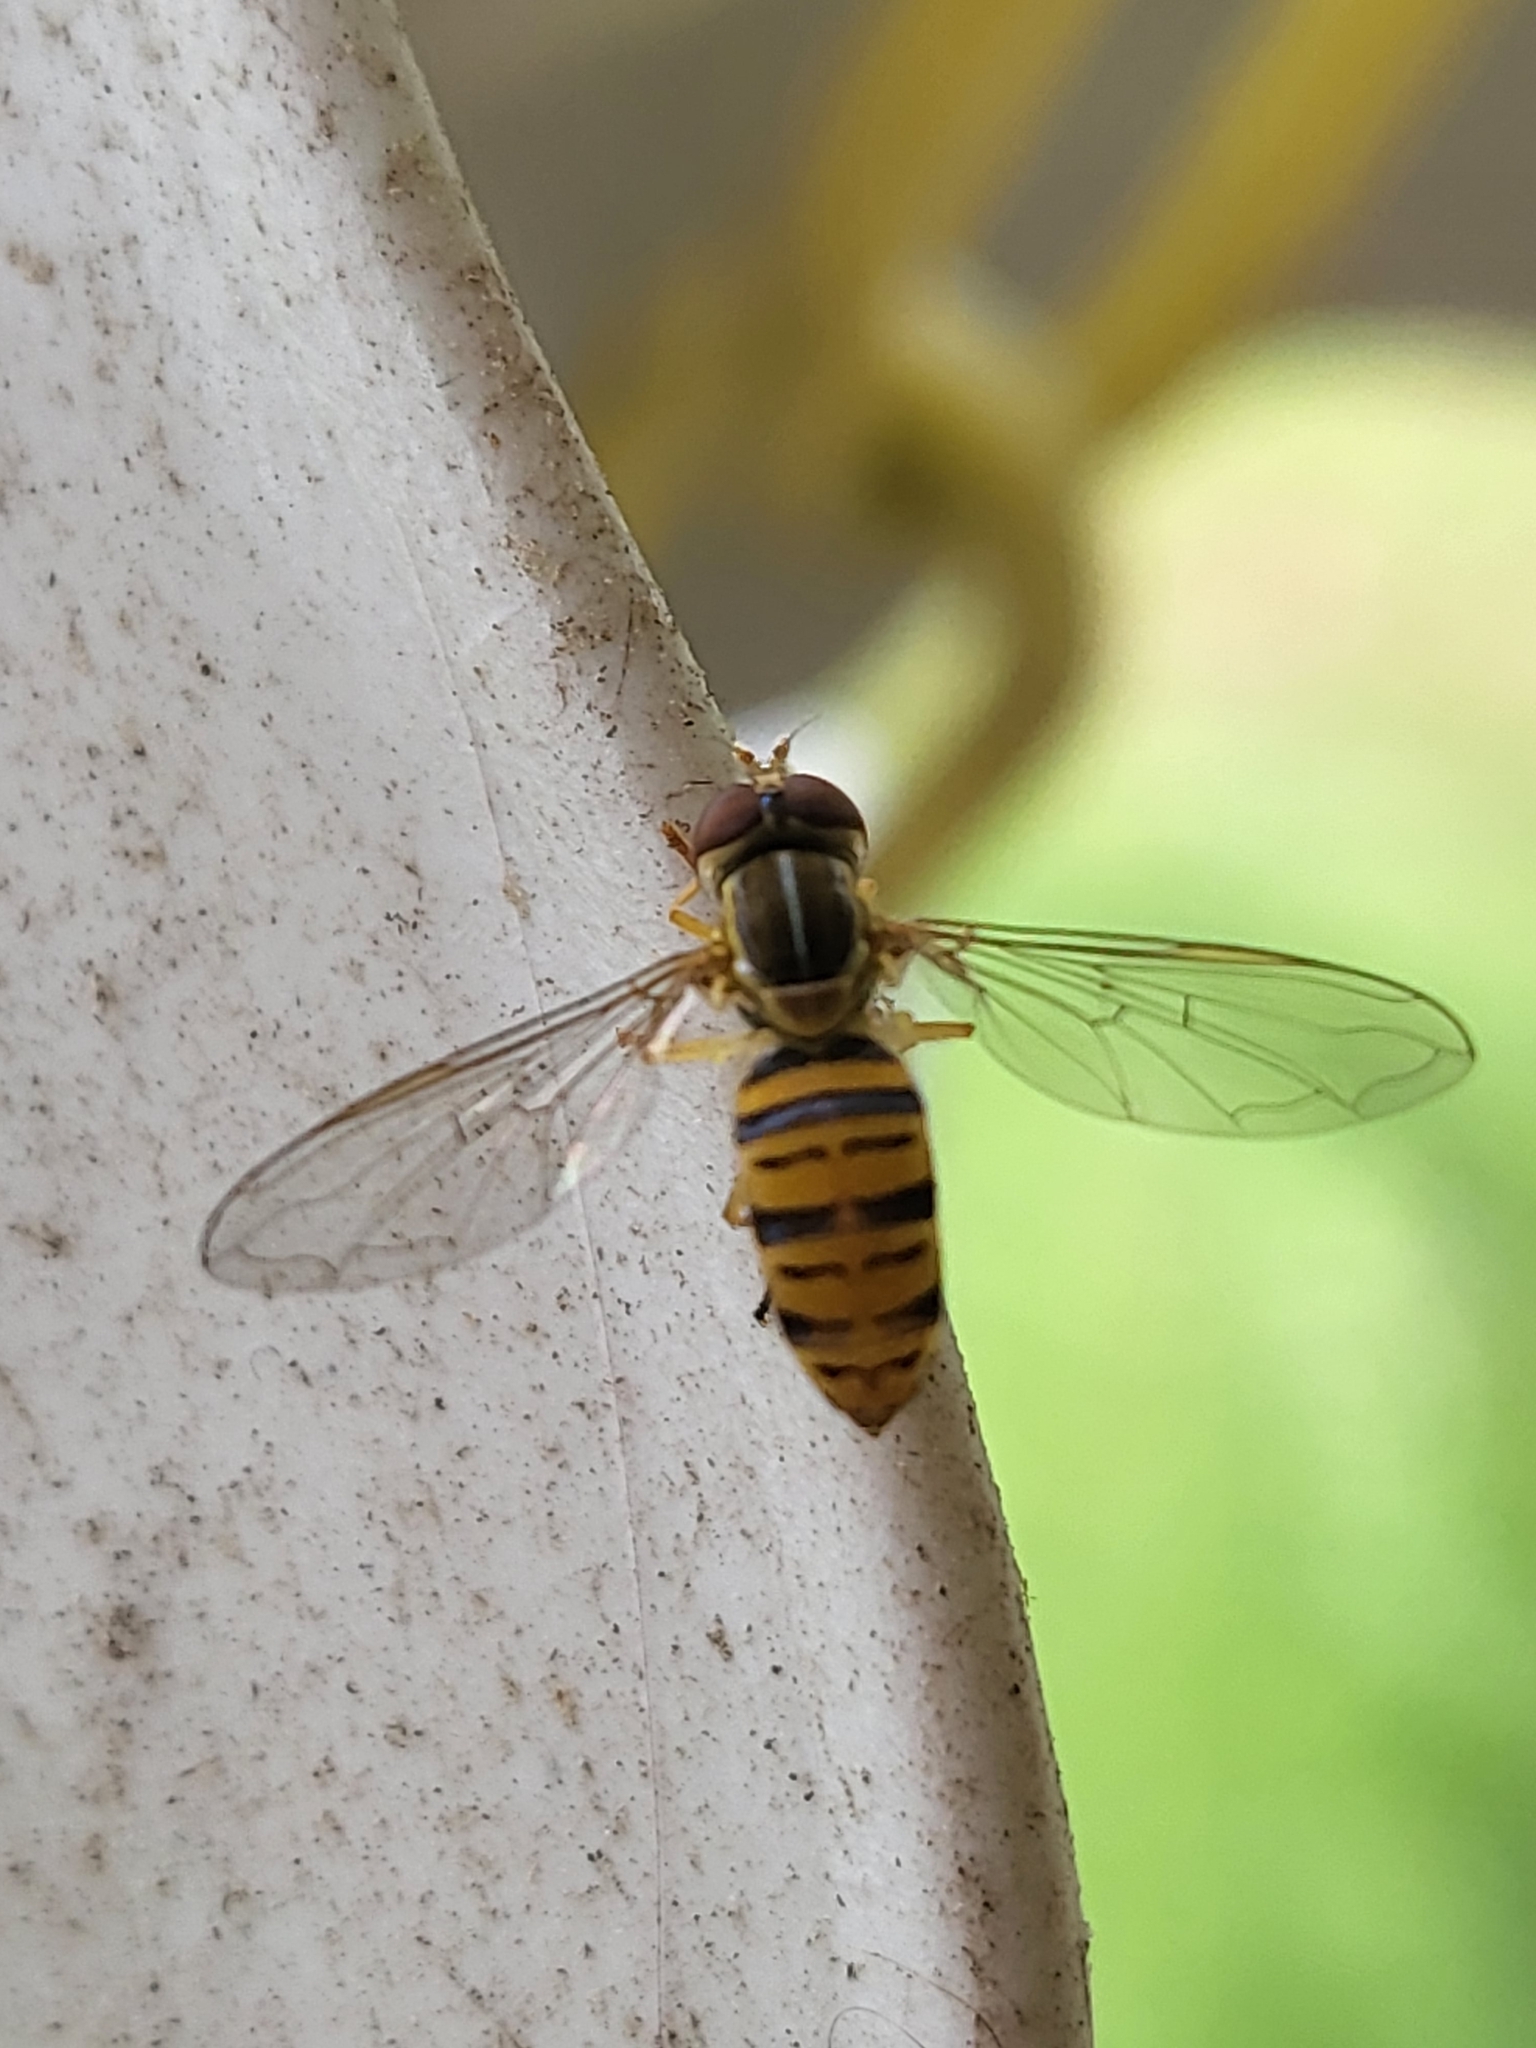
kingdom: Animalia
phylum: Arthropoda
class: Insecta
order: Diptera
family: Syrphidae
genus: Toxomerus
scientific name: Toxomerus politus
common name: Maize calligrapher
